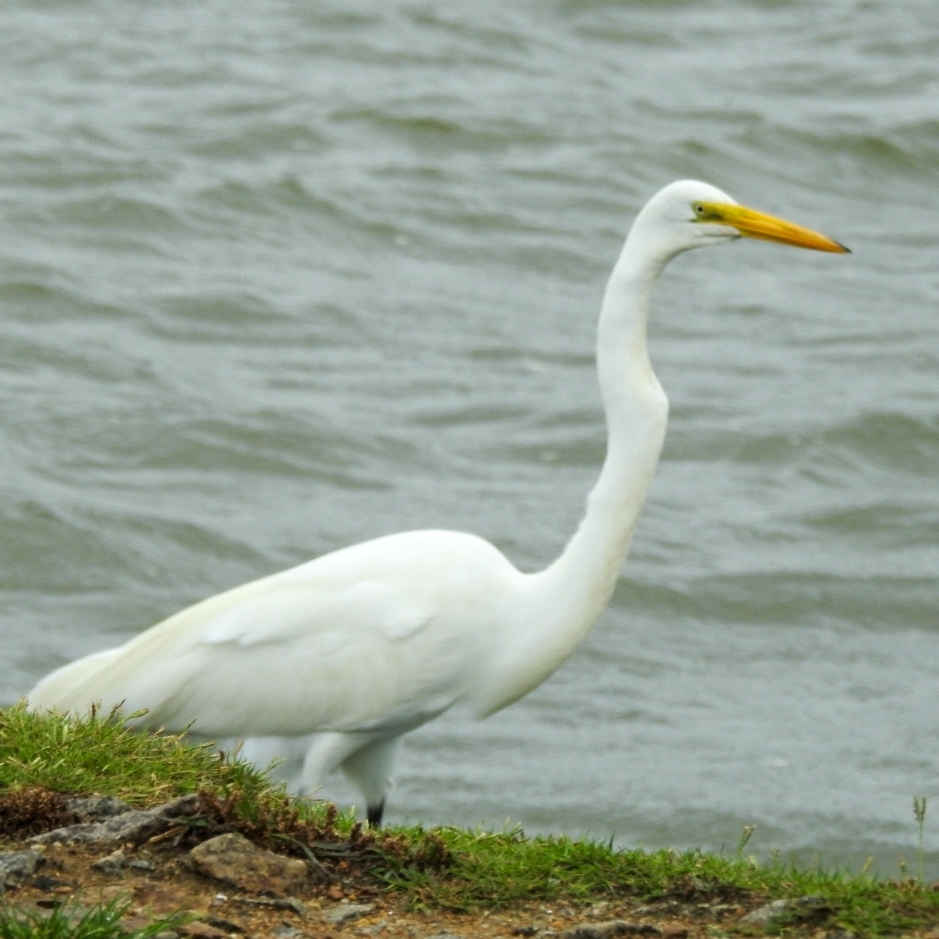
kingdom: Animalia
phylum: Chordata
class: Aves
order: Pelecaniformes
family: Ardeidae
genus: Ardea
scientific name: Ardea alba
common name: Great egret
